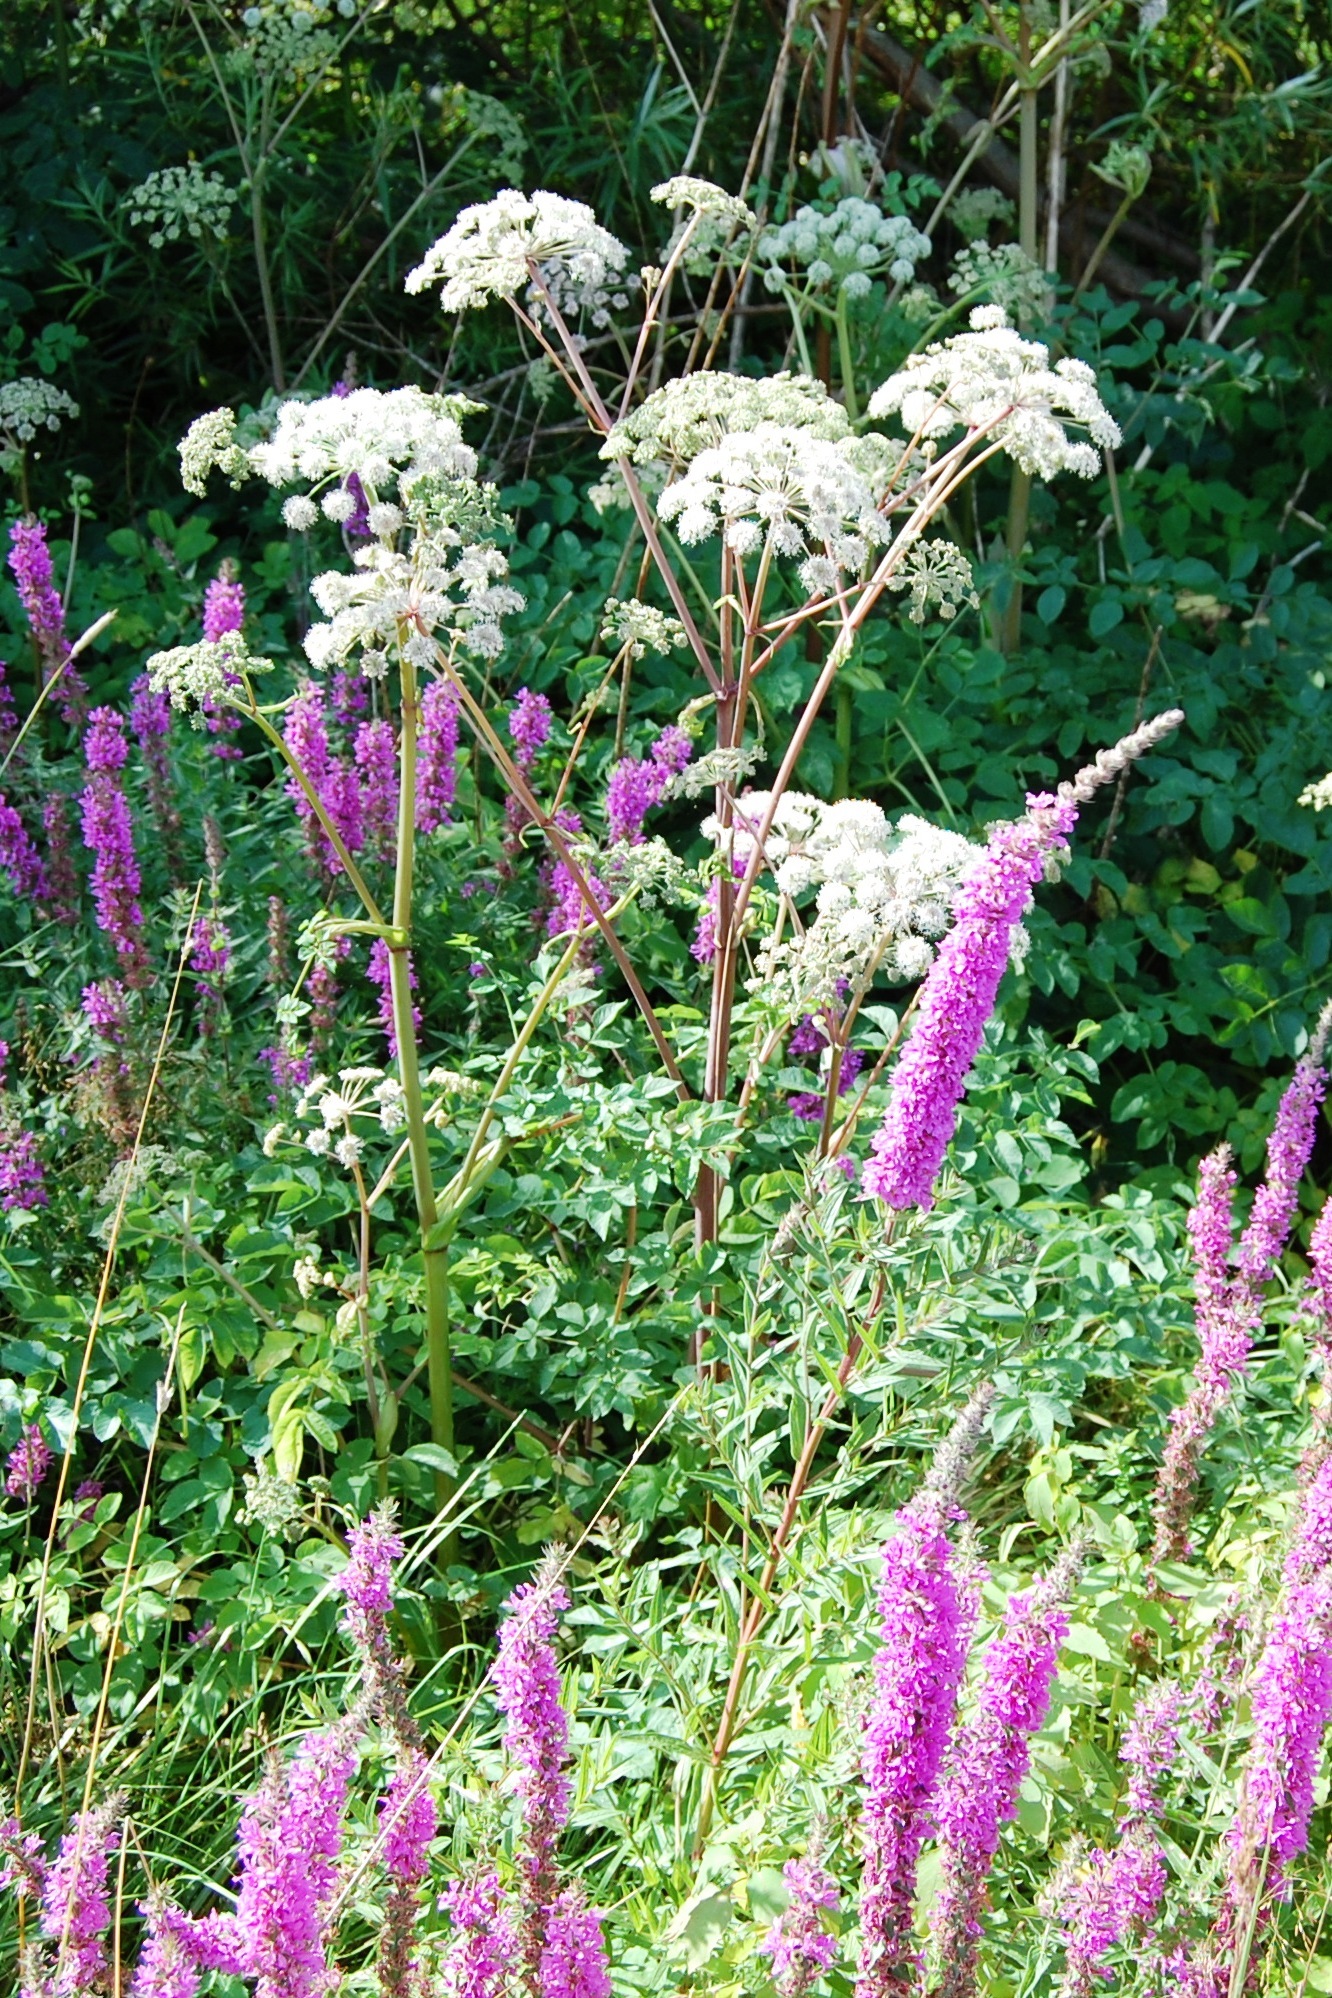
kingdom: Plantae
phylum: Tracheophyta
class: Magnoliopsida
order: Apiales
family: Apiaceae
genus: Cicuta
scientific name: Cicuta maculata
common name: Spotted cowbane
